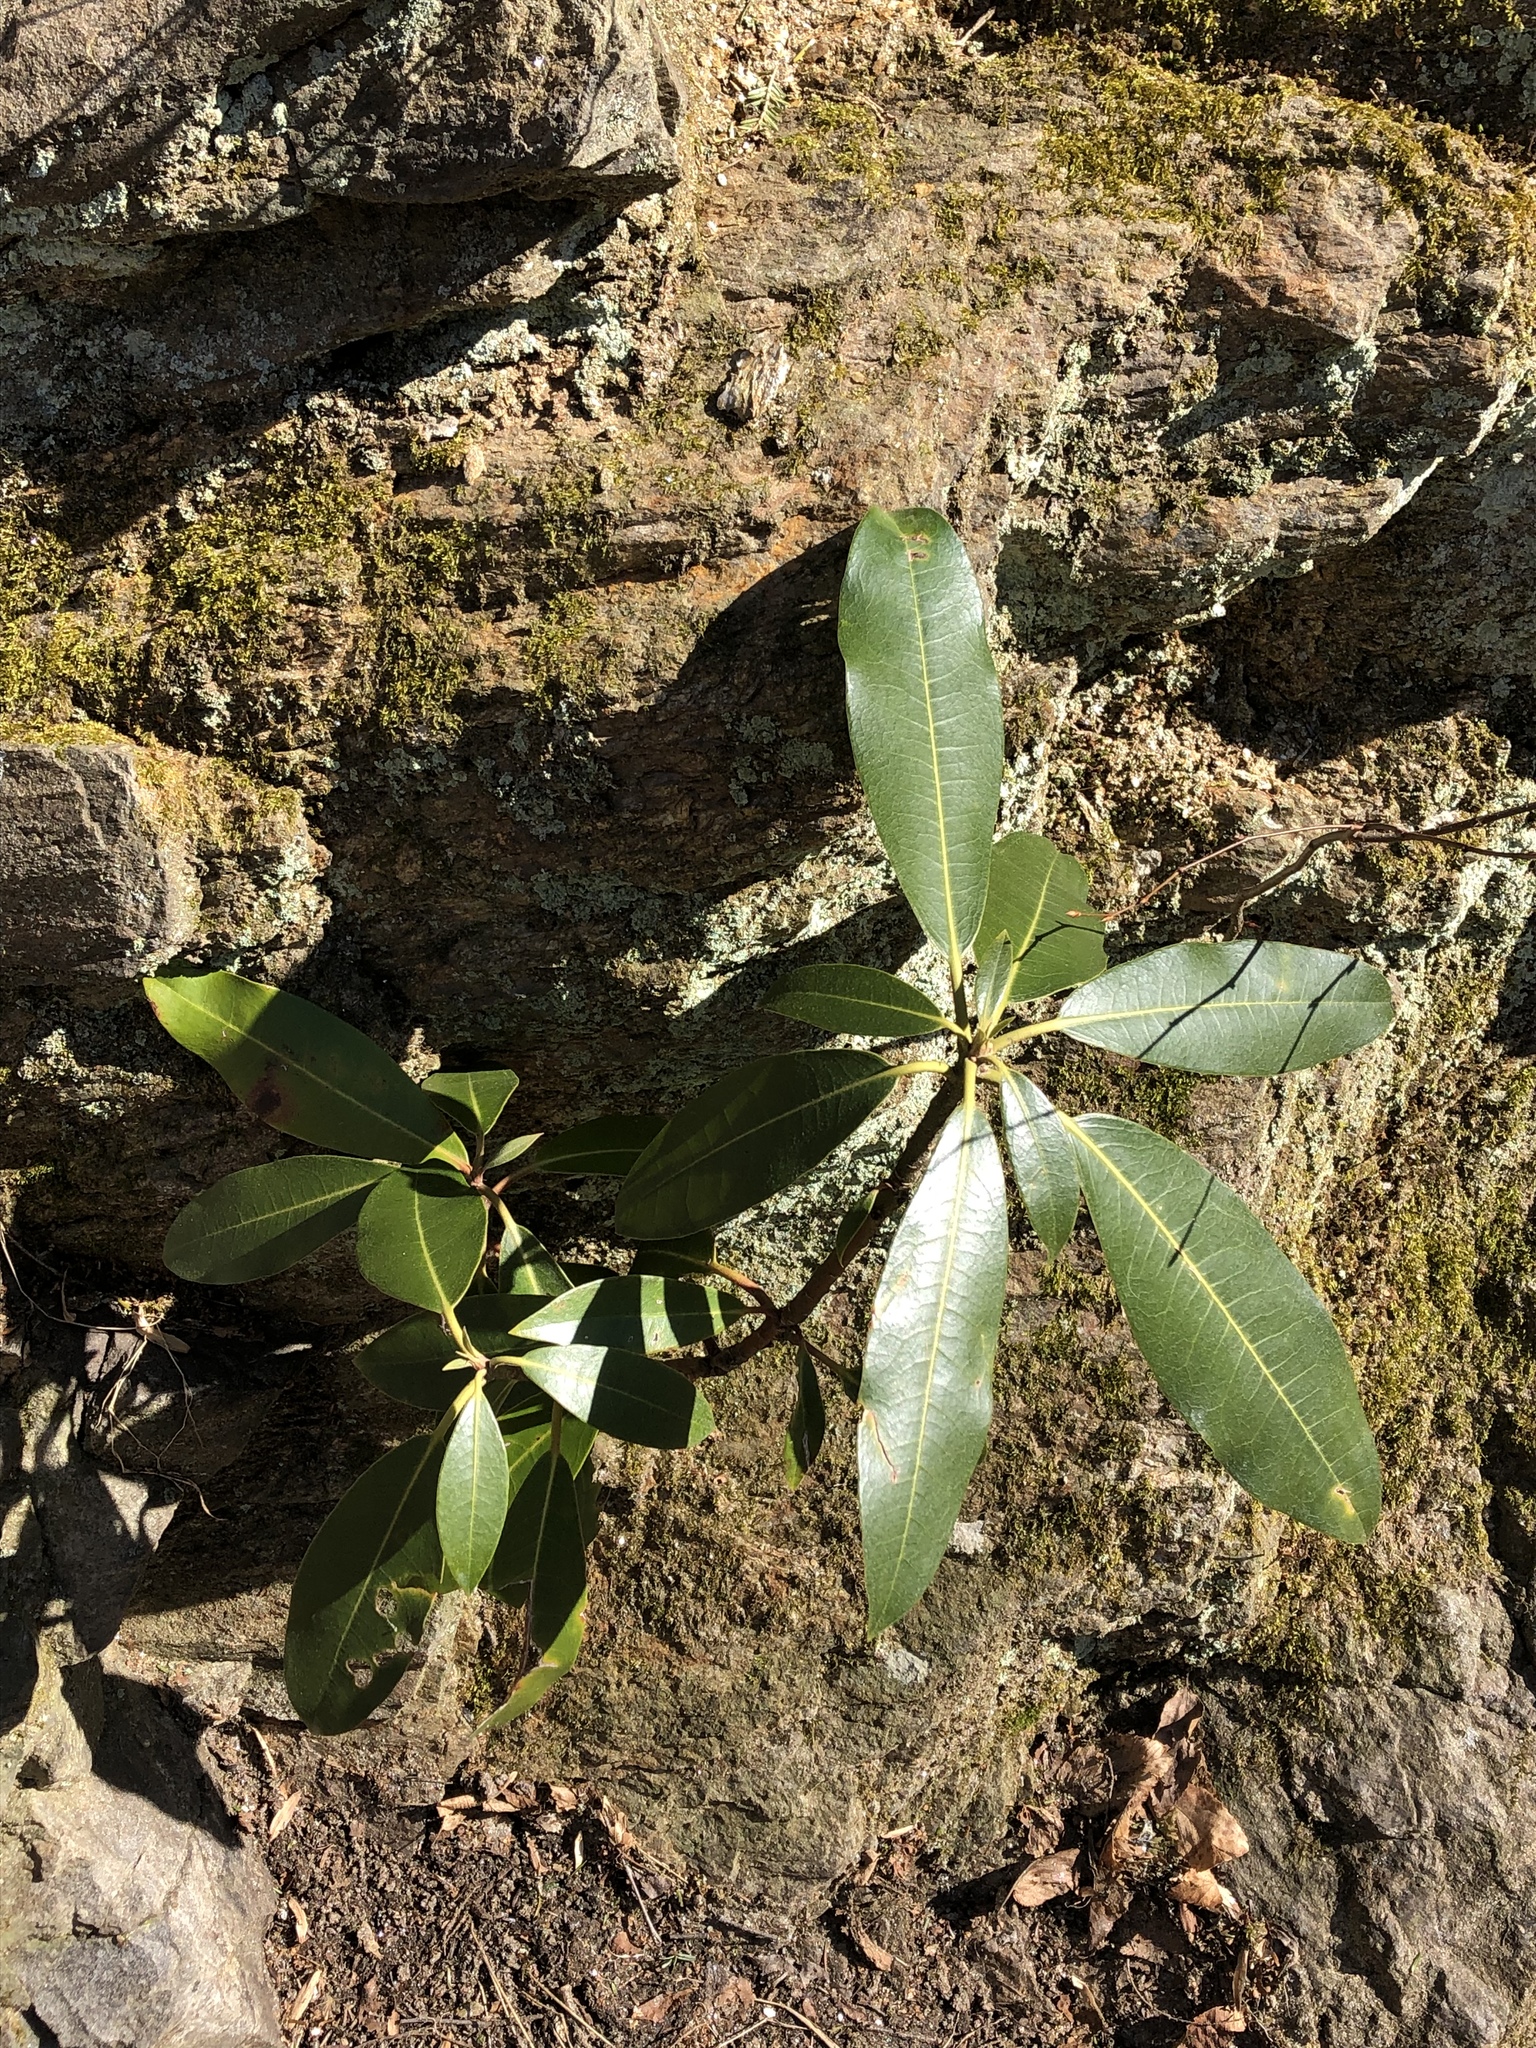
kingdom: Plantae
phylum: Tracheophyta
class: Magnoliopsida
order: Ericales
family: Ericaceae
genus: Kalmia
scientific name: Kalmia latifolia
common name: Mountain-laurel
